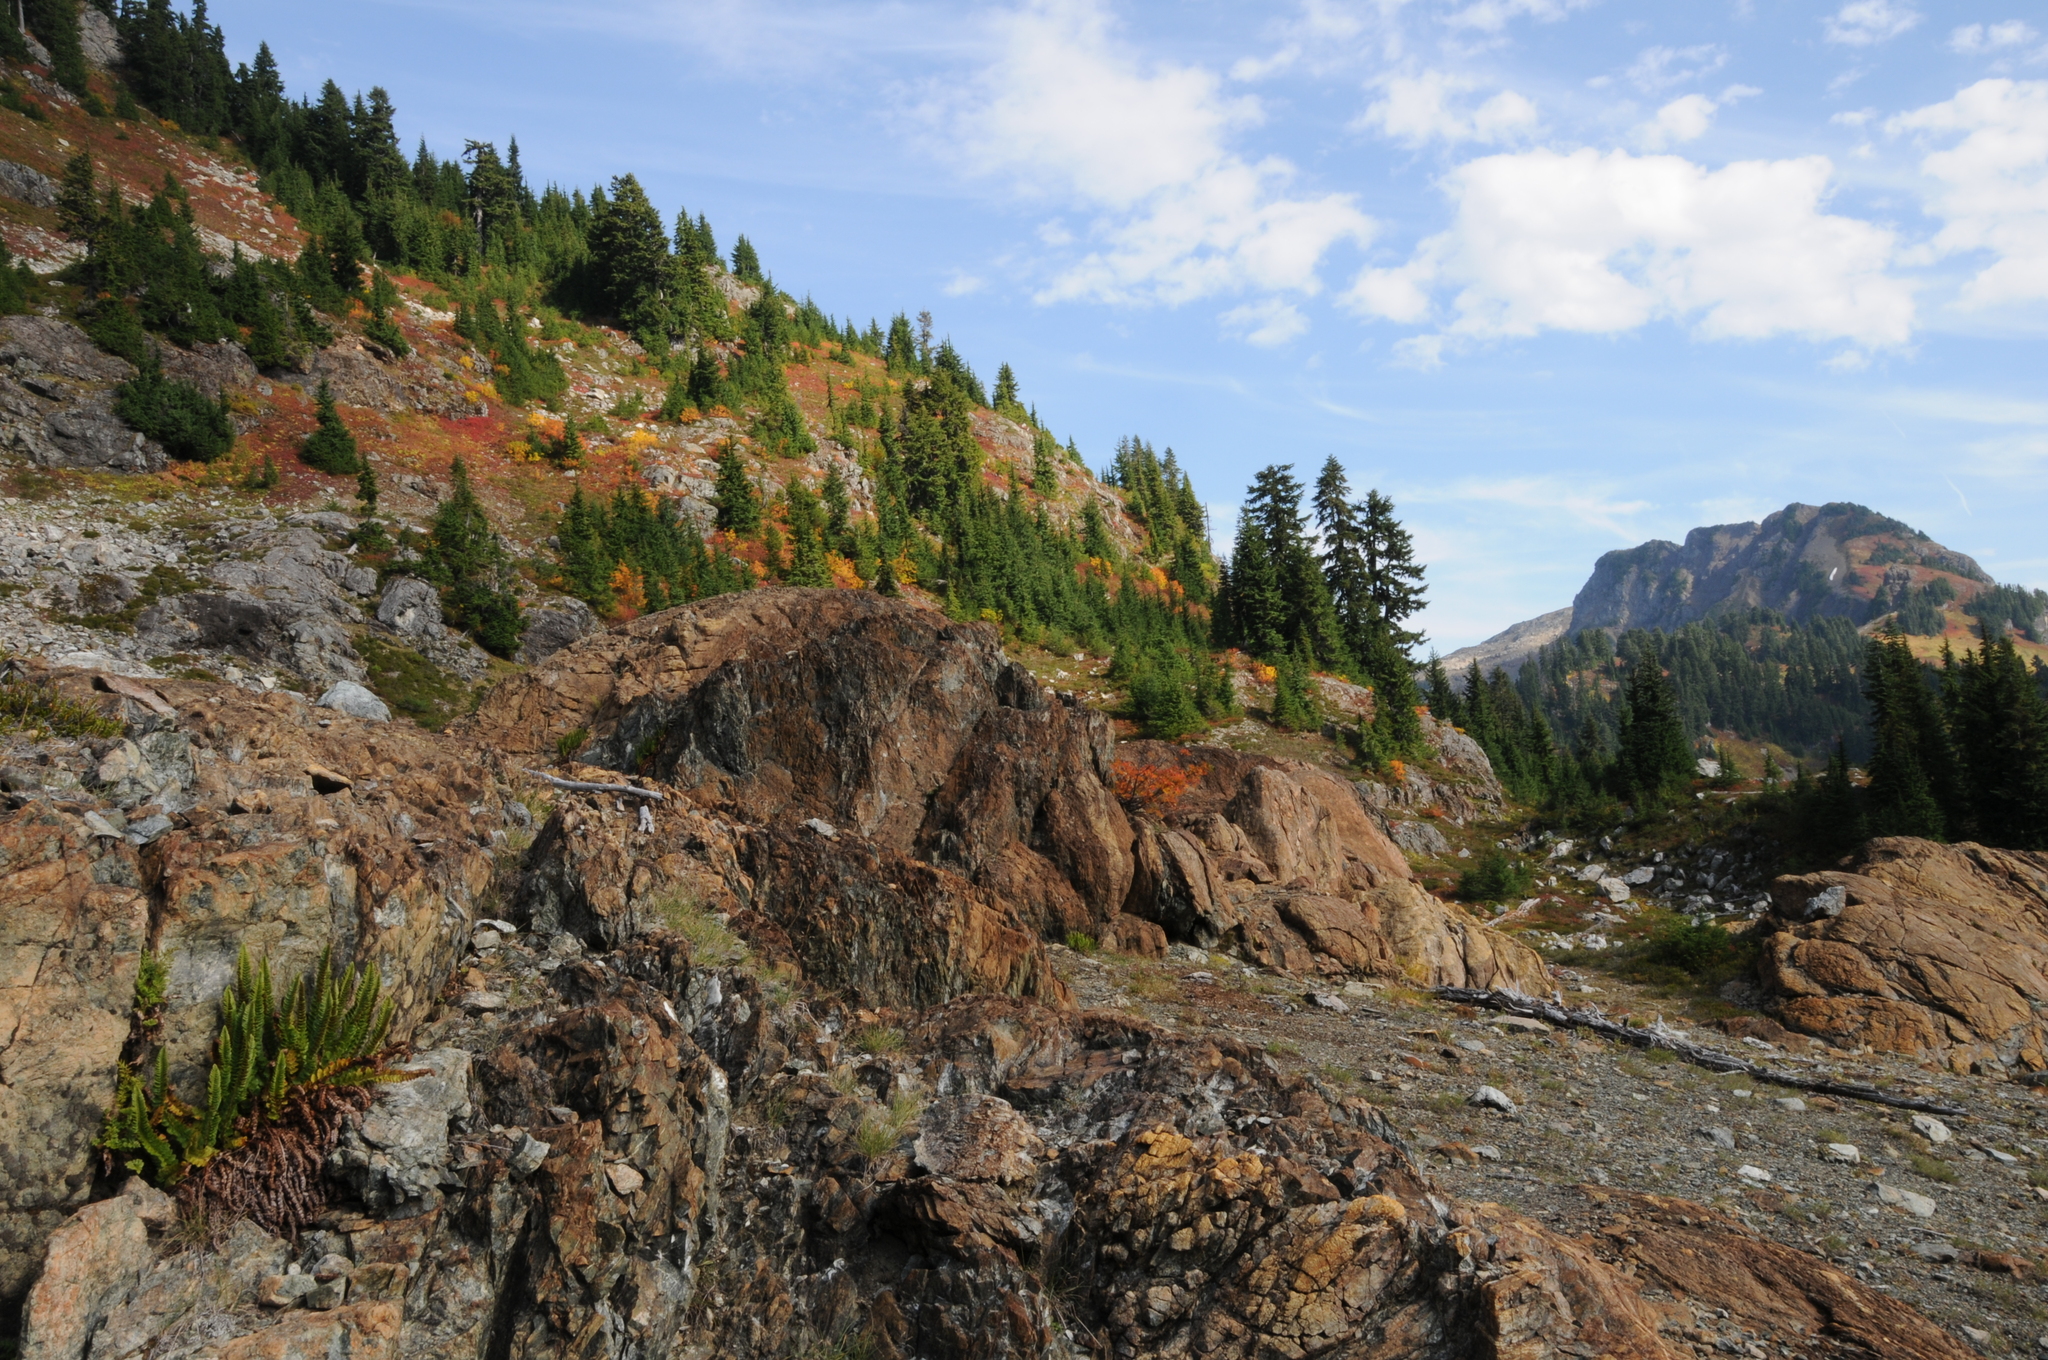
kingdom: Plantae
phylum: Tracheophyta
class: Polypodiopsida
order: Polypodiales
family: Dryopteridaceae
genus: Polystichum
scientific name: Polystichum lemmonii
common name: Lemmon's holly fern
